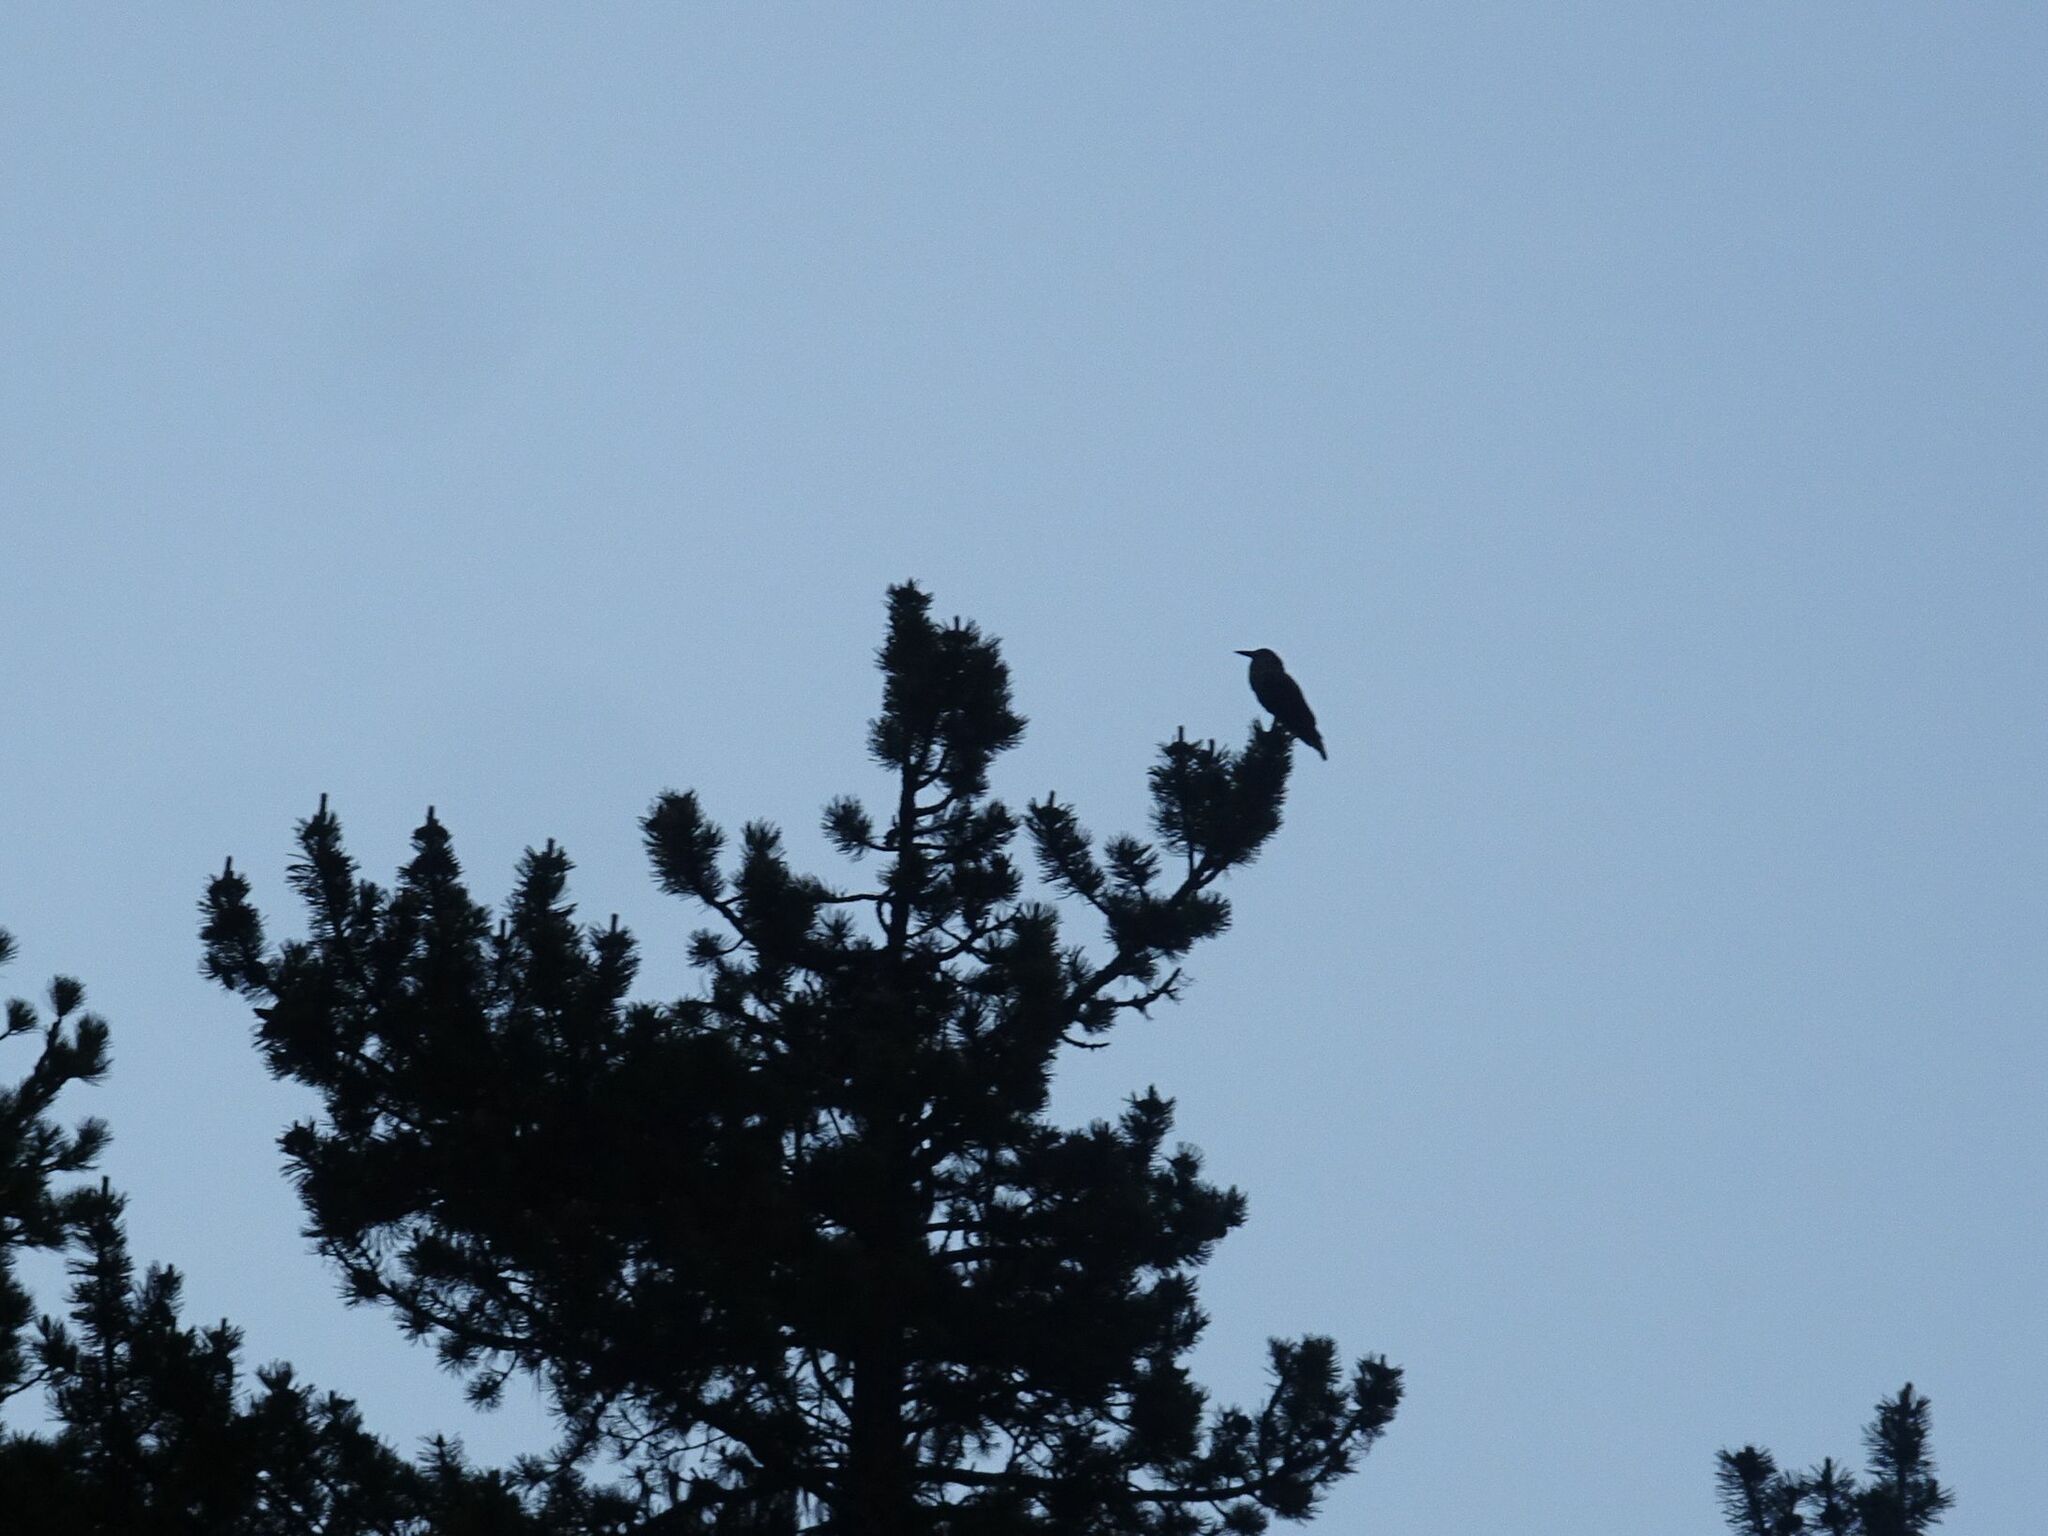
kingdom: Animalia
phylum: Chordata
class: Aves
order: Passeriformes
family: Corvidae
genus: Nucifraga
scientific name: Nucifraga caryocatactes
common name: Spotted nutcracker
